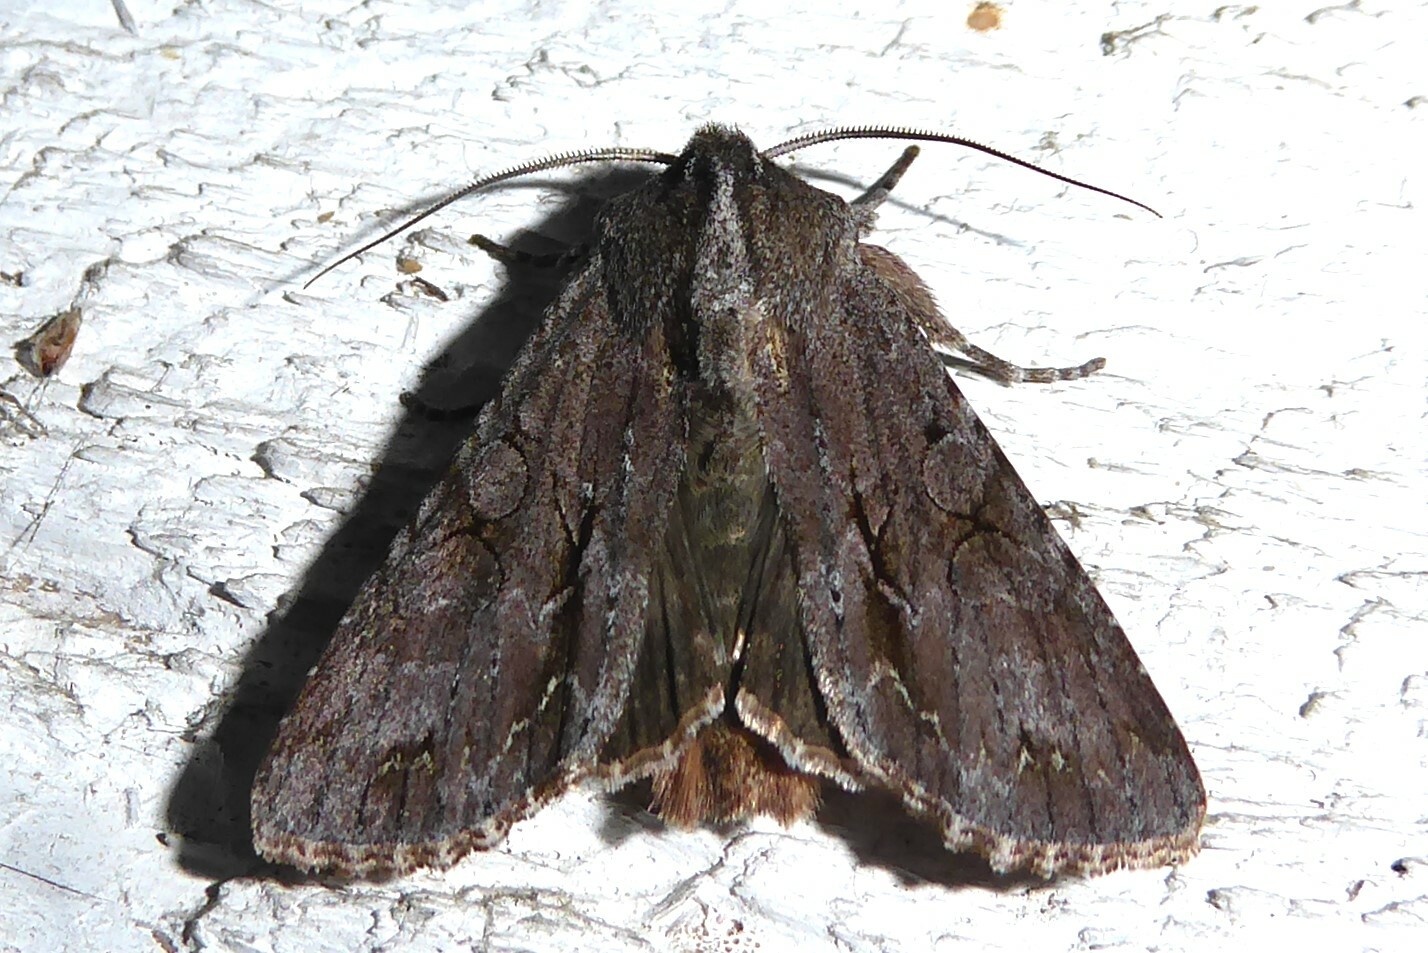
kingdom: Animalia
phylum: Arthropoda
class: Insecta
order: Lepidoptera
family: Noctuidae
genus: Ichneutica
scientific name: Ichneutica
